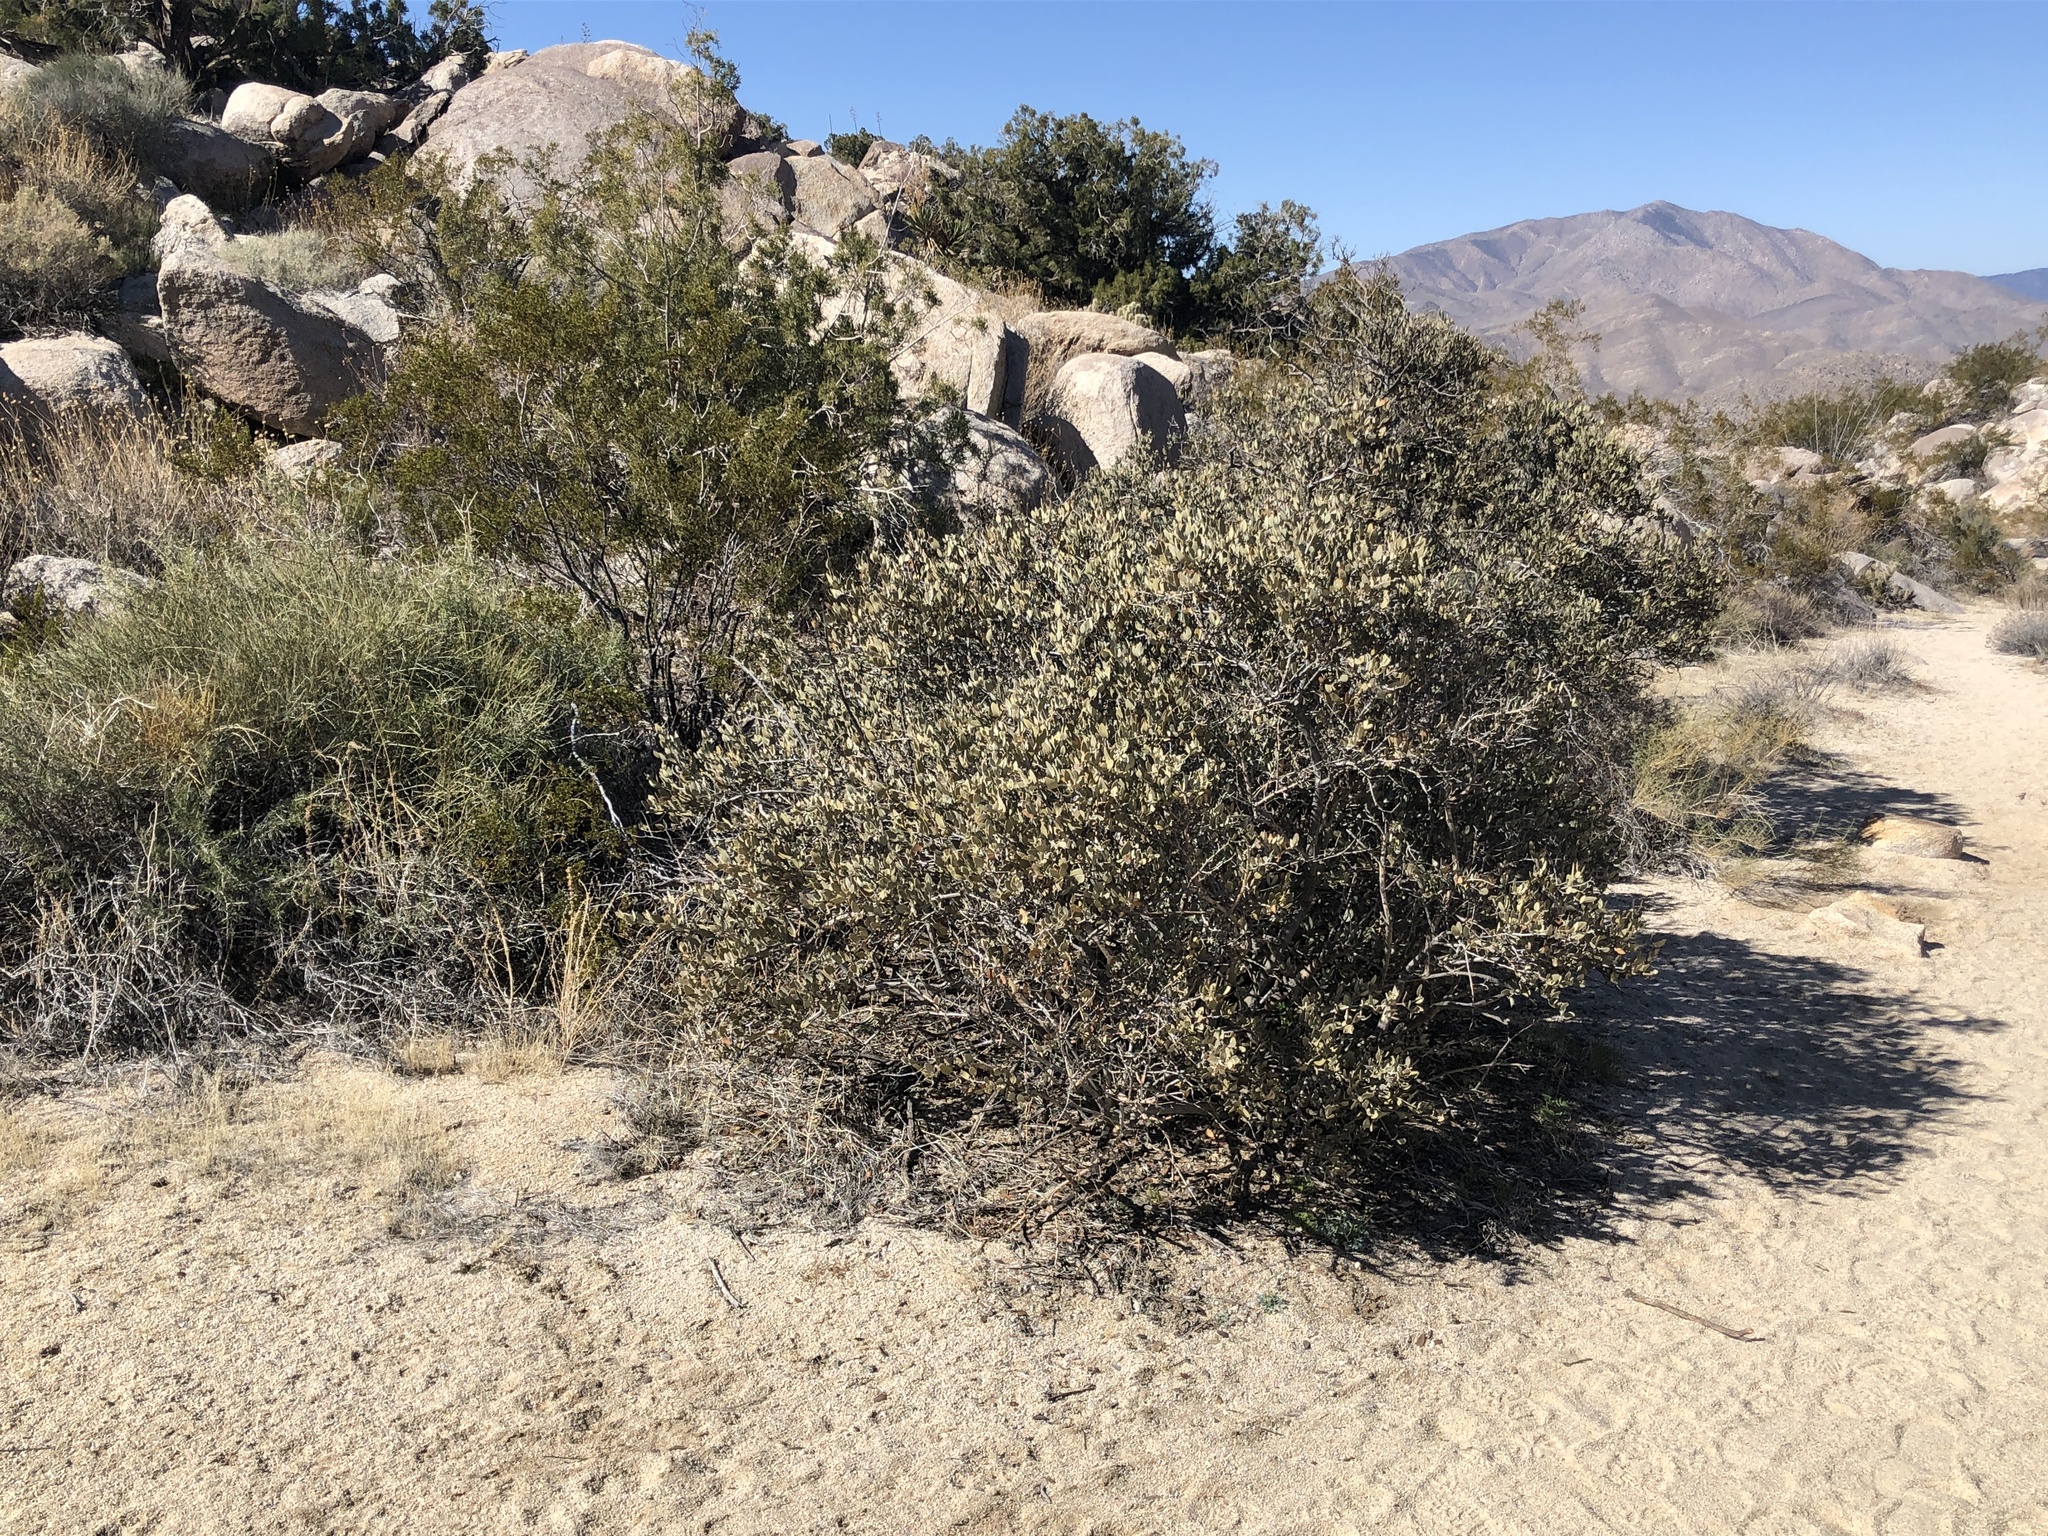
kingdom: Plantae
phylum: Tracheophyta
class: Magnoliopsida
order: Caryophyllales
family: Simmondsiaceae
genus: Simmondsia
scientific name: Simmondsia chinensis
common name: Jojoba
